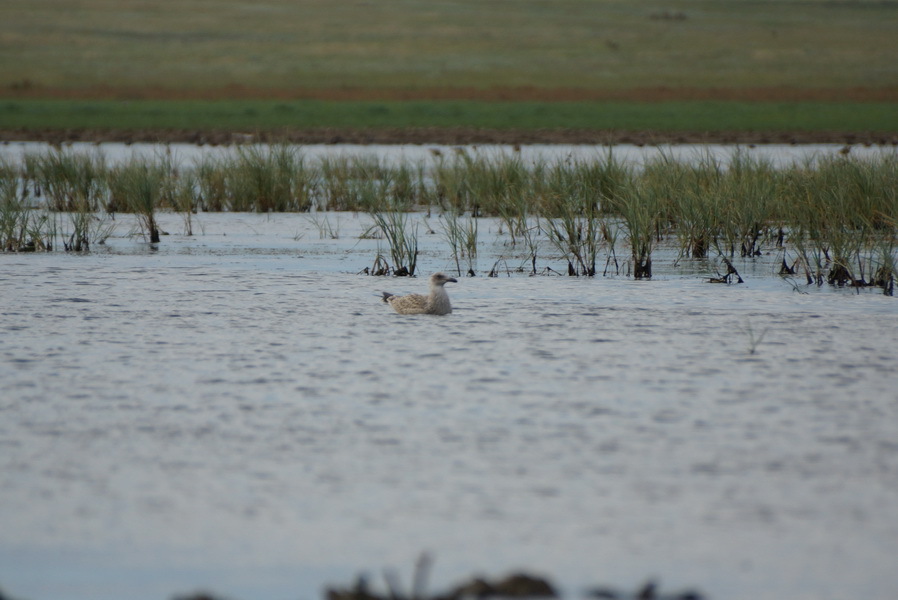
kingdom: Animalia
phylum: Chordata
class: Aves
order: Charadriiformes
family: Laridae
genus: Larus
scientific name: Larus cachinnans
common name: Caspian gull
